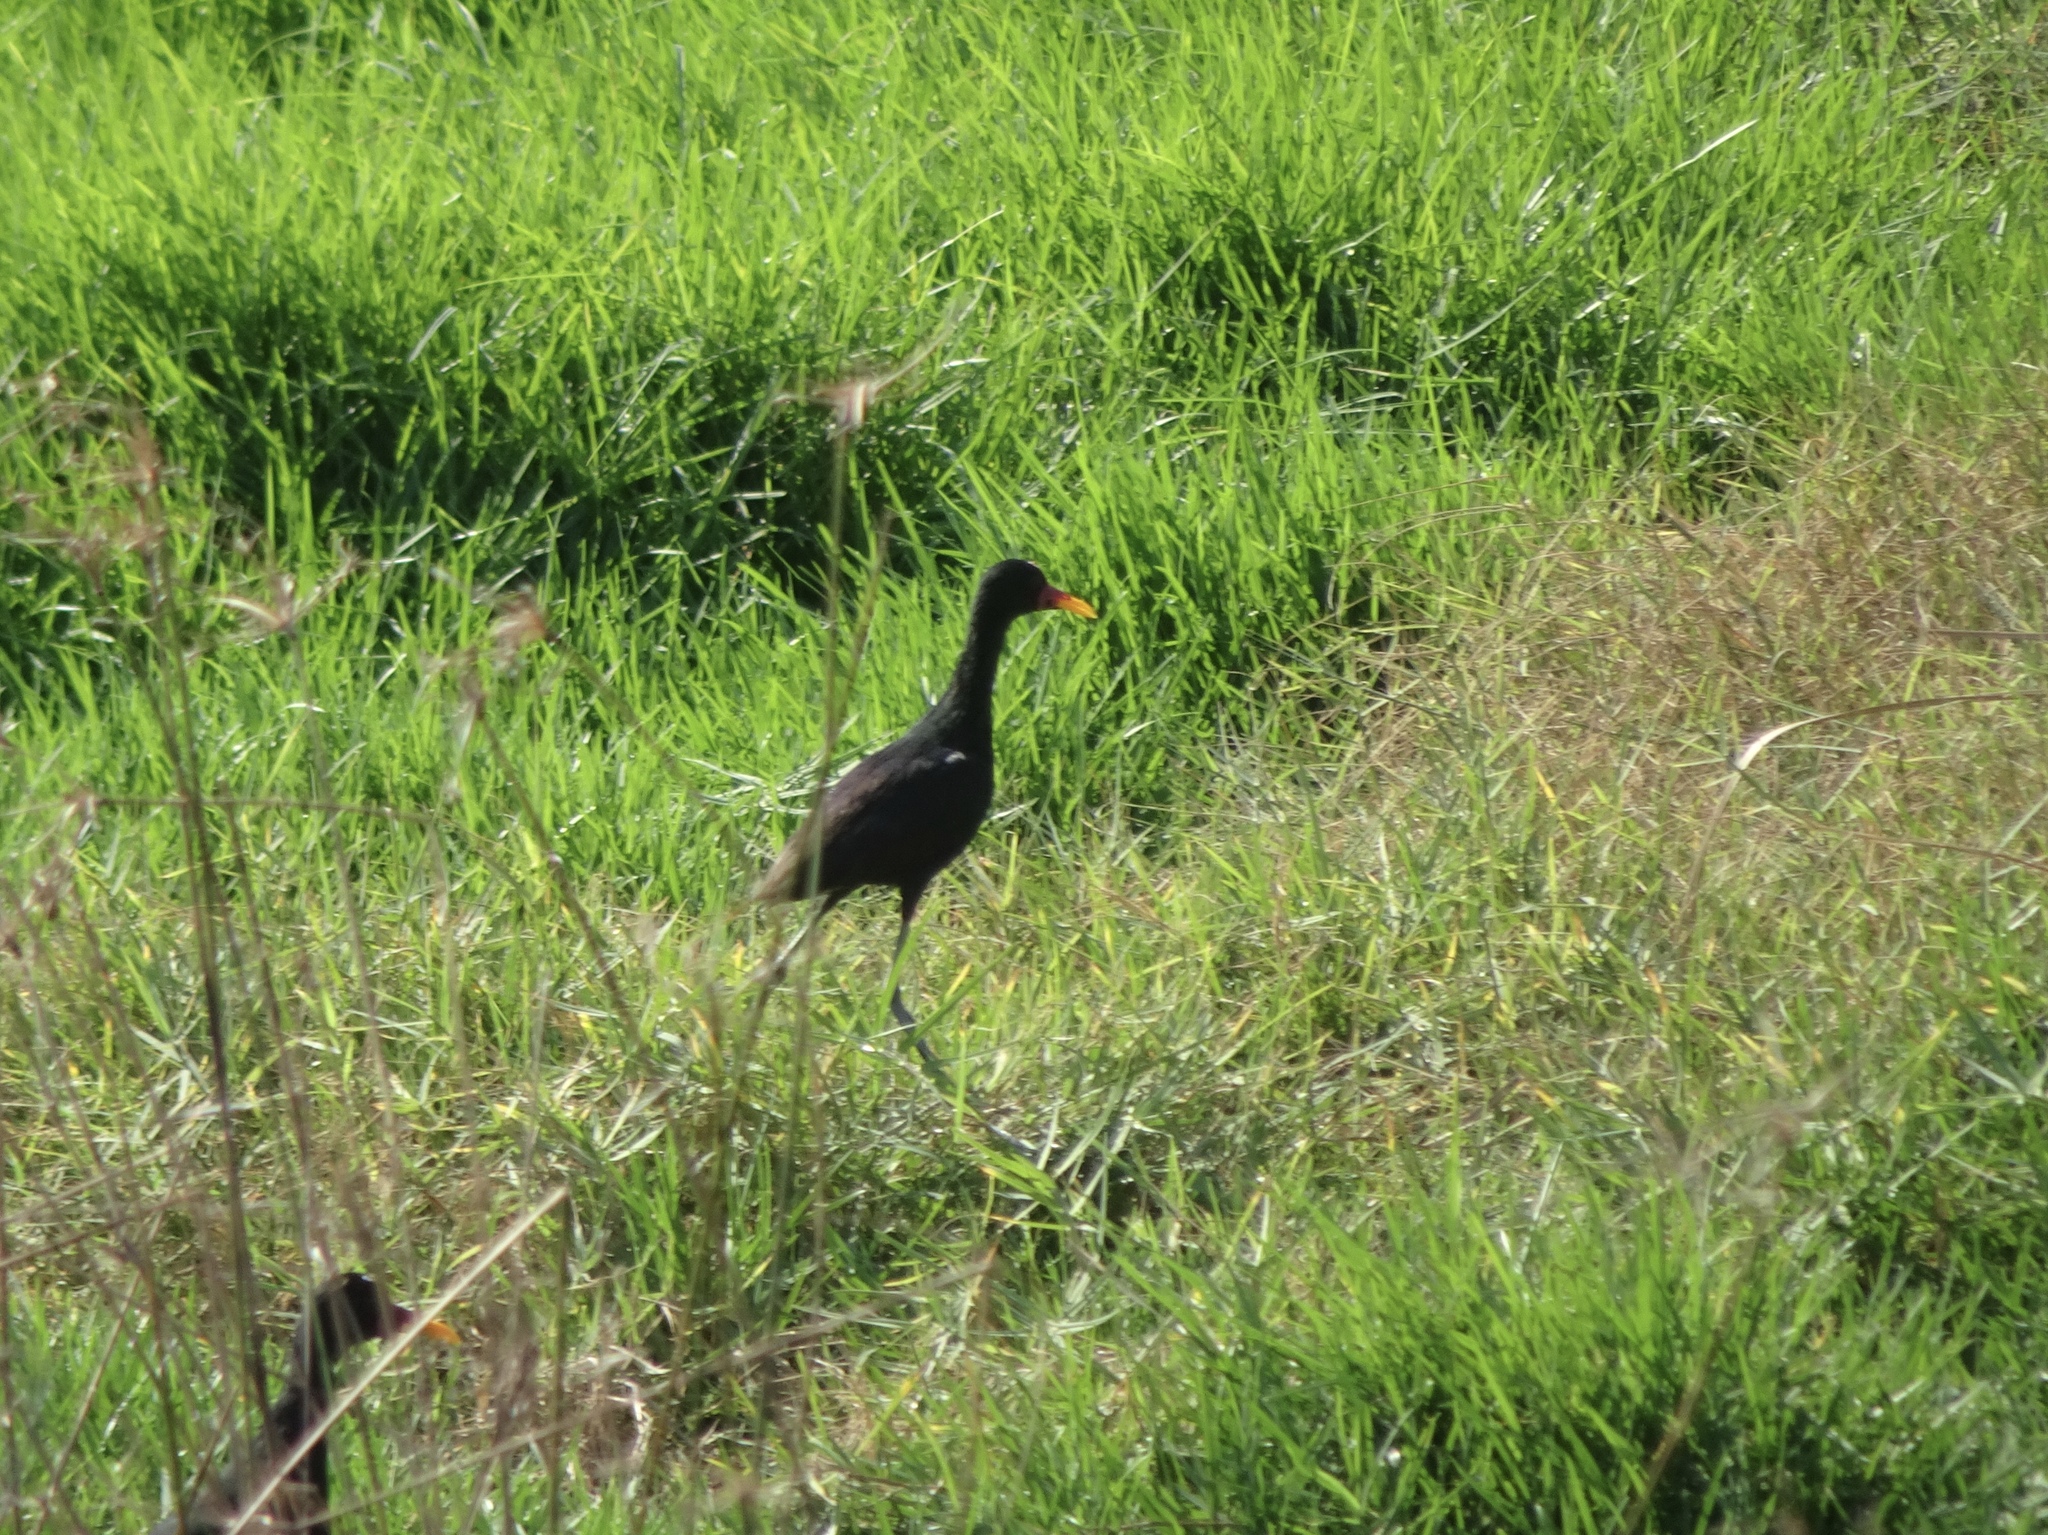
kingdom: Animalia
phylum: Chordata
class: Aves
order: Charadriiformes
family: Jacanidae
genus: Jacana
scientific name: Jacana jacana
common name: Wattled jacana
